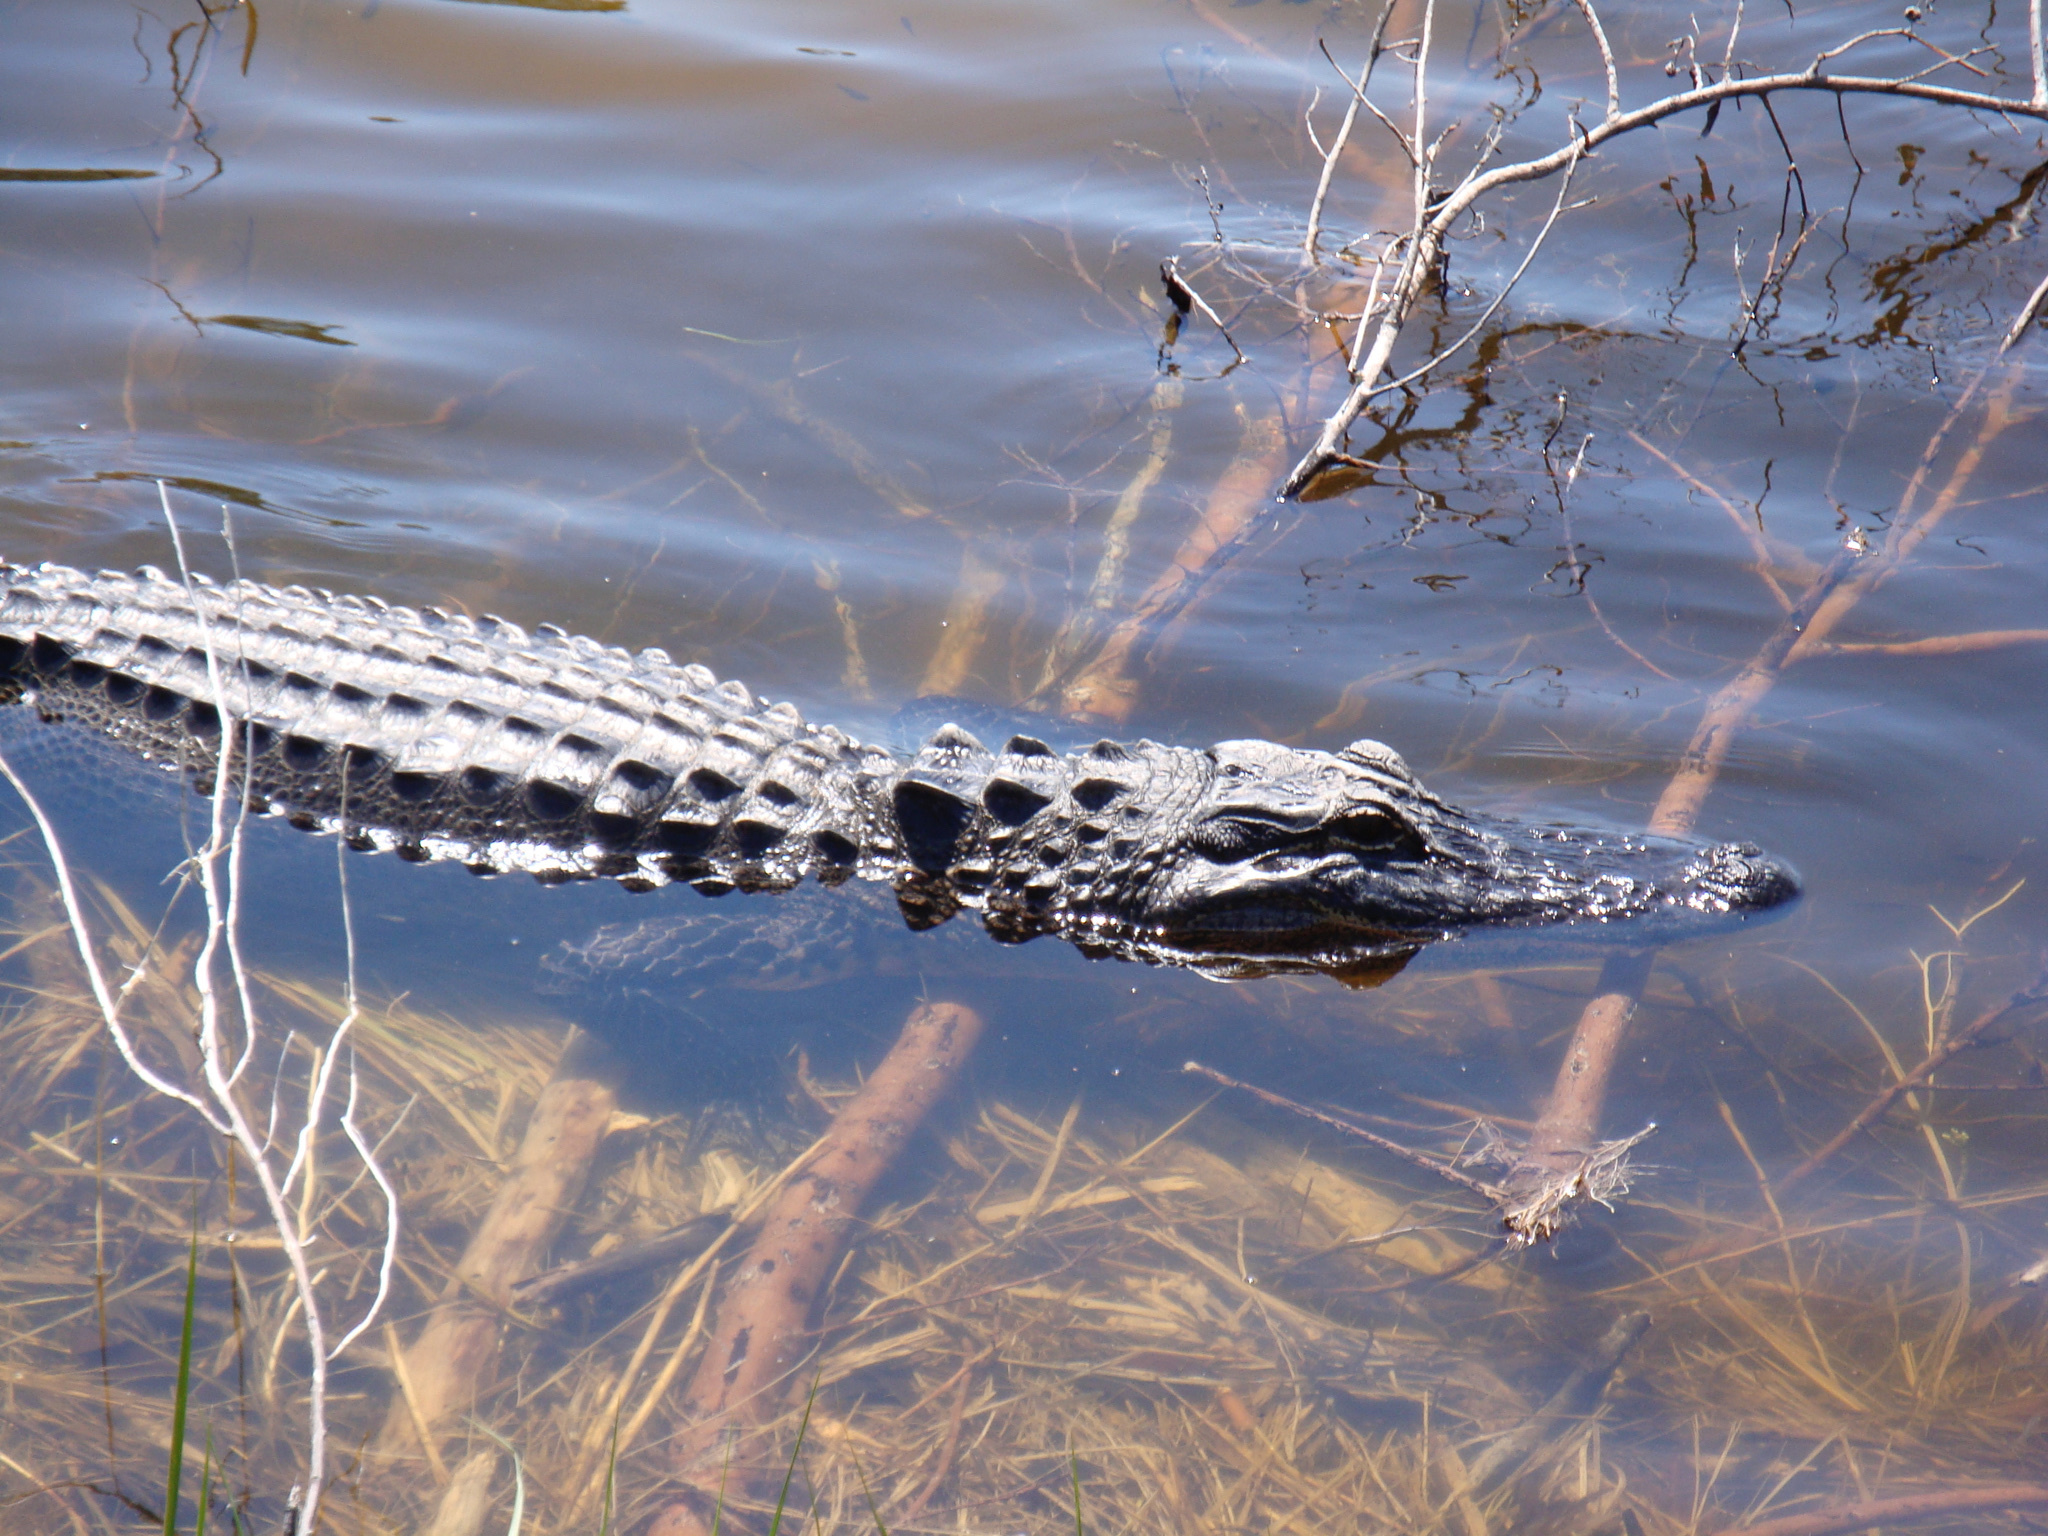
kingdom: Animalia
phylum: Chordata
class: Crocodylia
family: Alligatoridae
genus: Alligator
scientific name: Alligator mississippiensis
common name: American alligator
